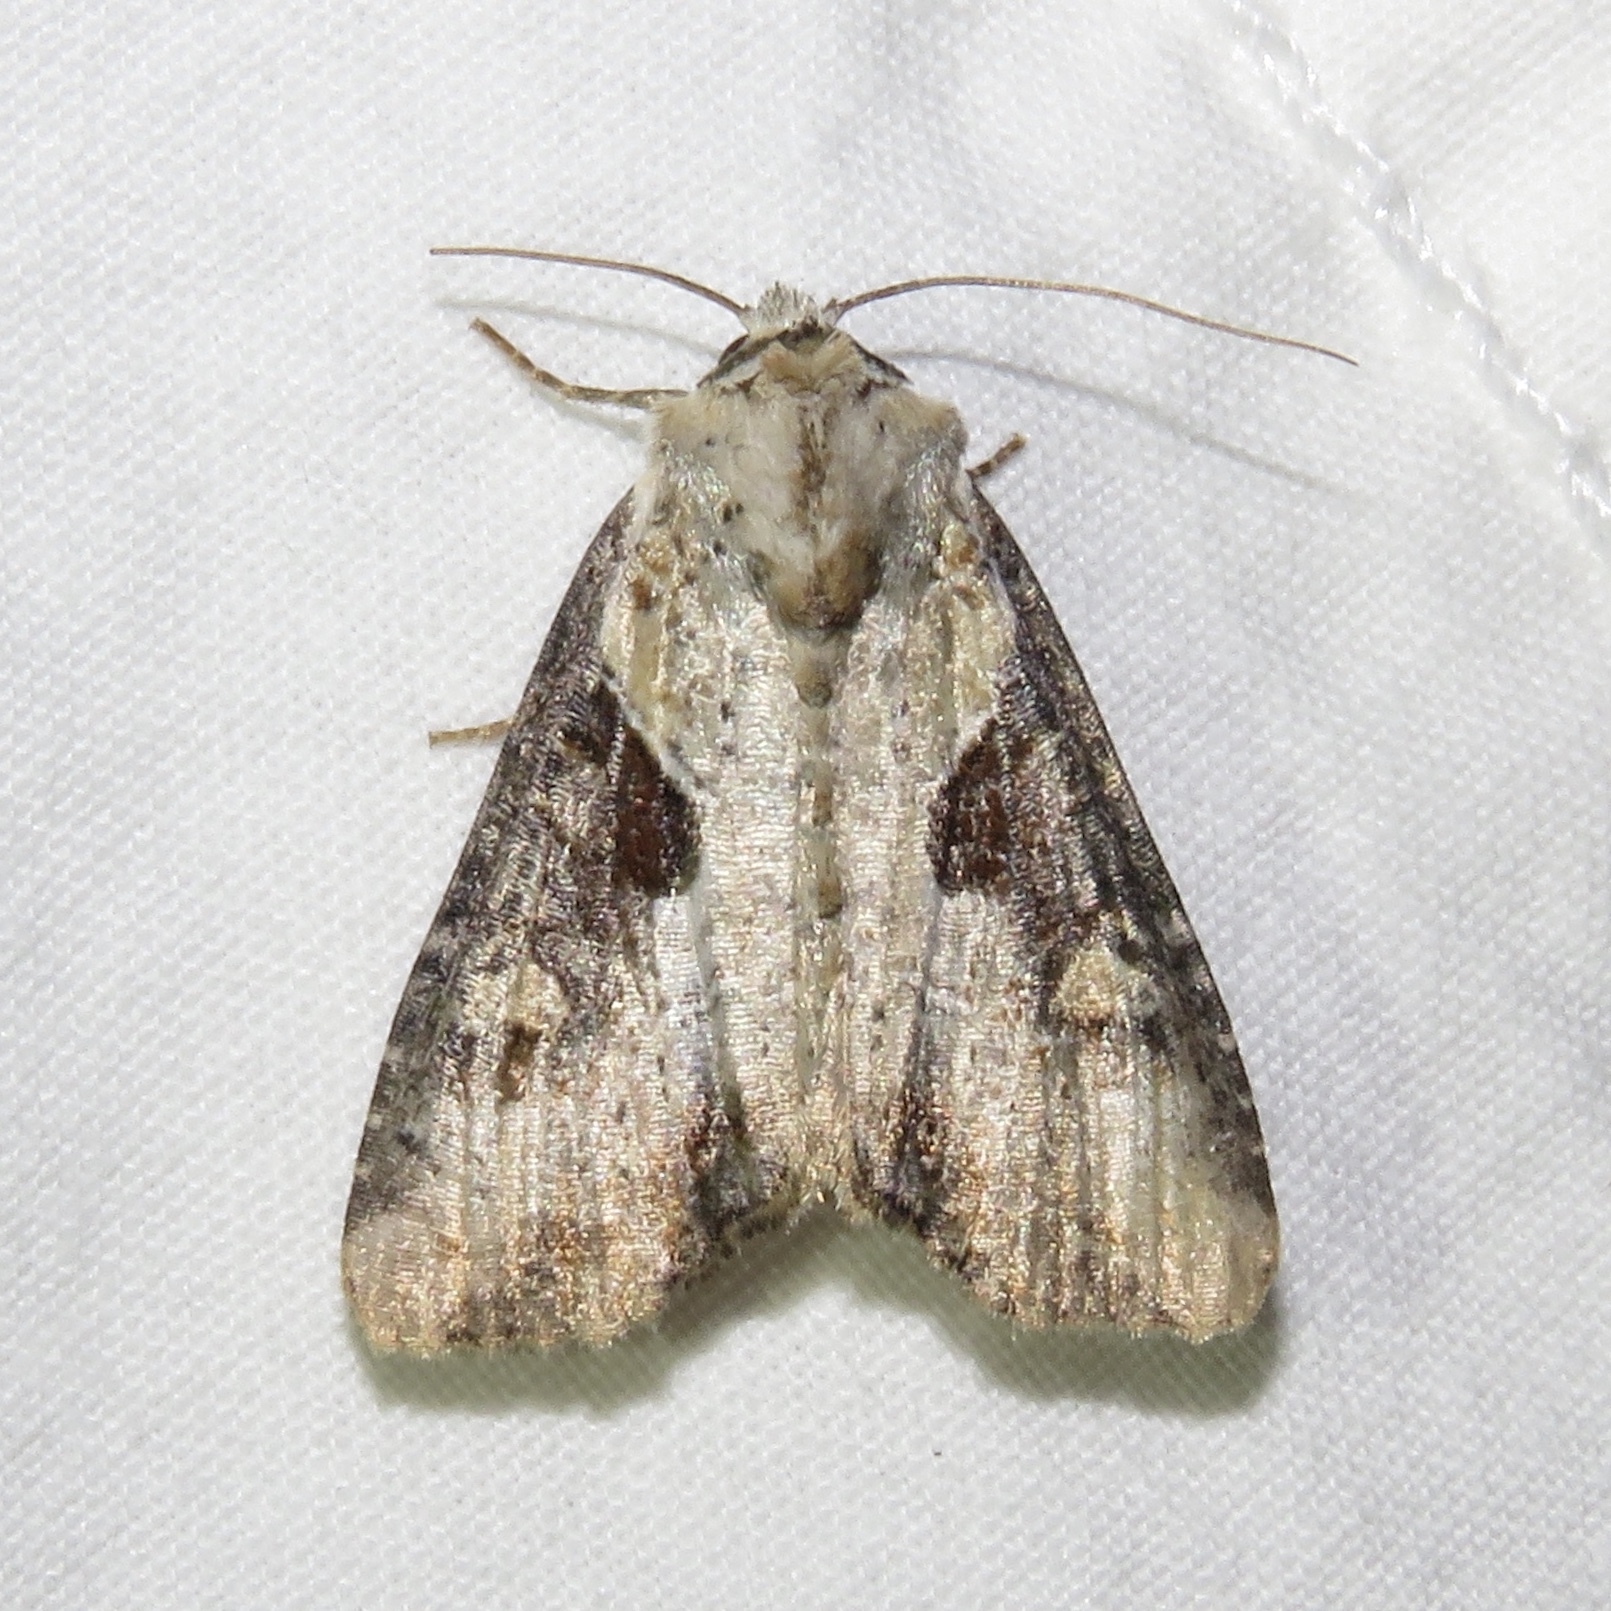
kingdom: Animalia
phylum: Arthropoda
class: Insecta
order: Lepidoptera
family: Noctuidae
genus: Lateroligia
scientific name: Lateroligia ophiogramma
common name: Double lobed
